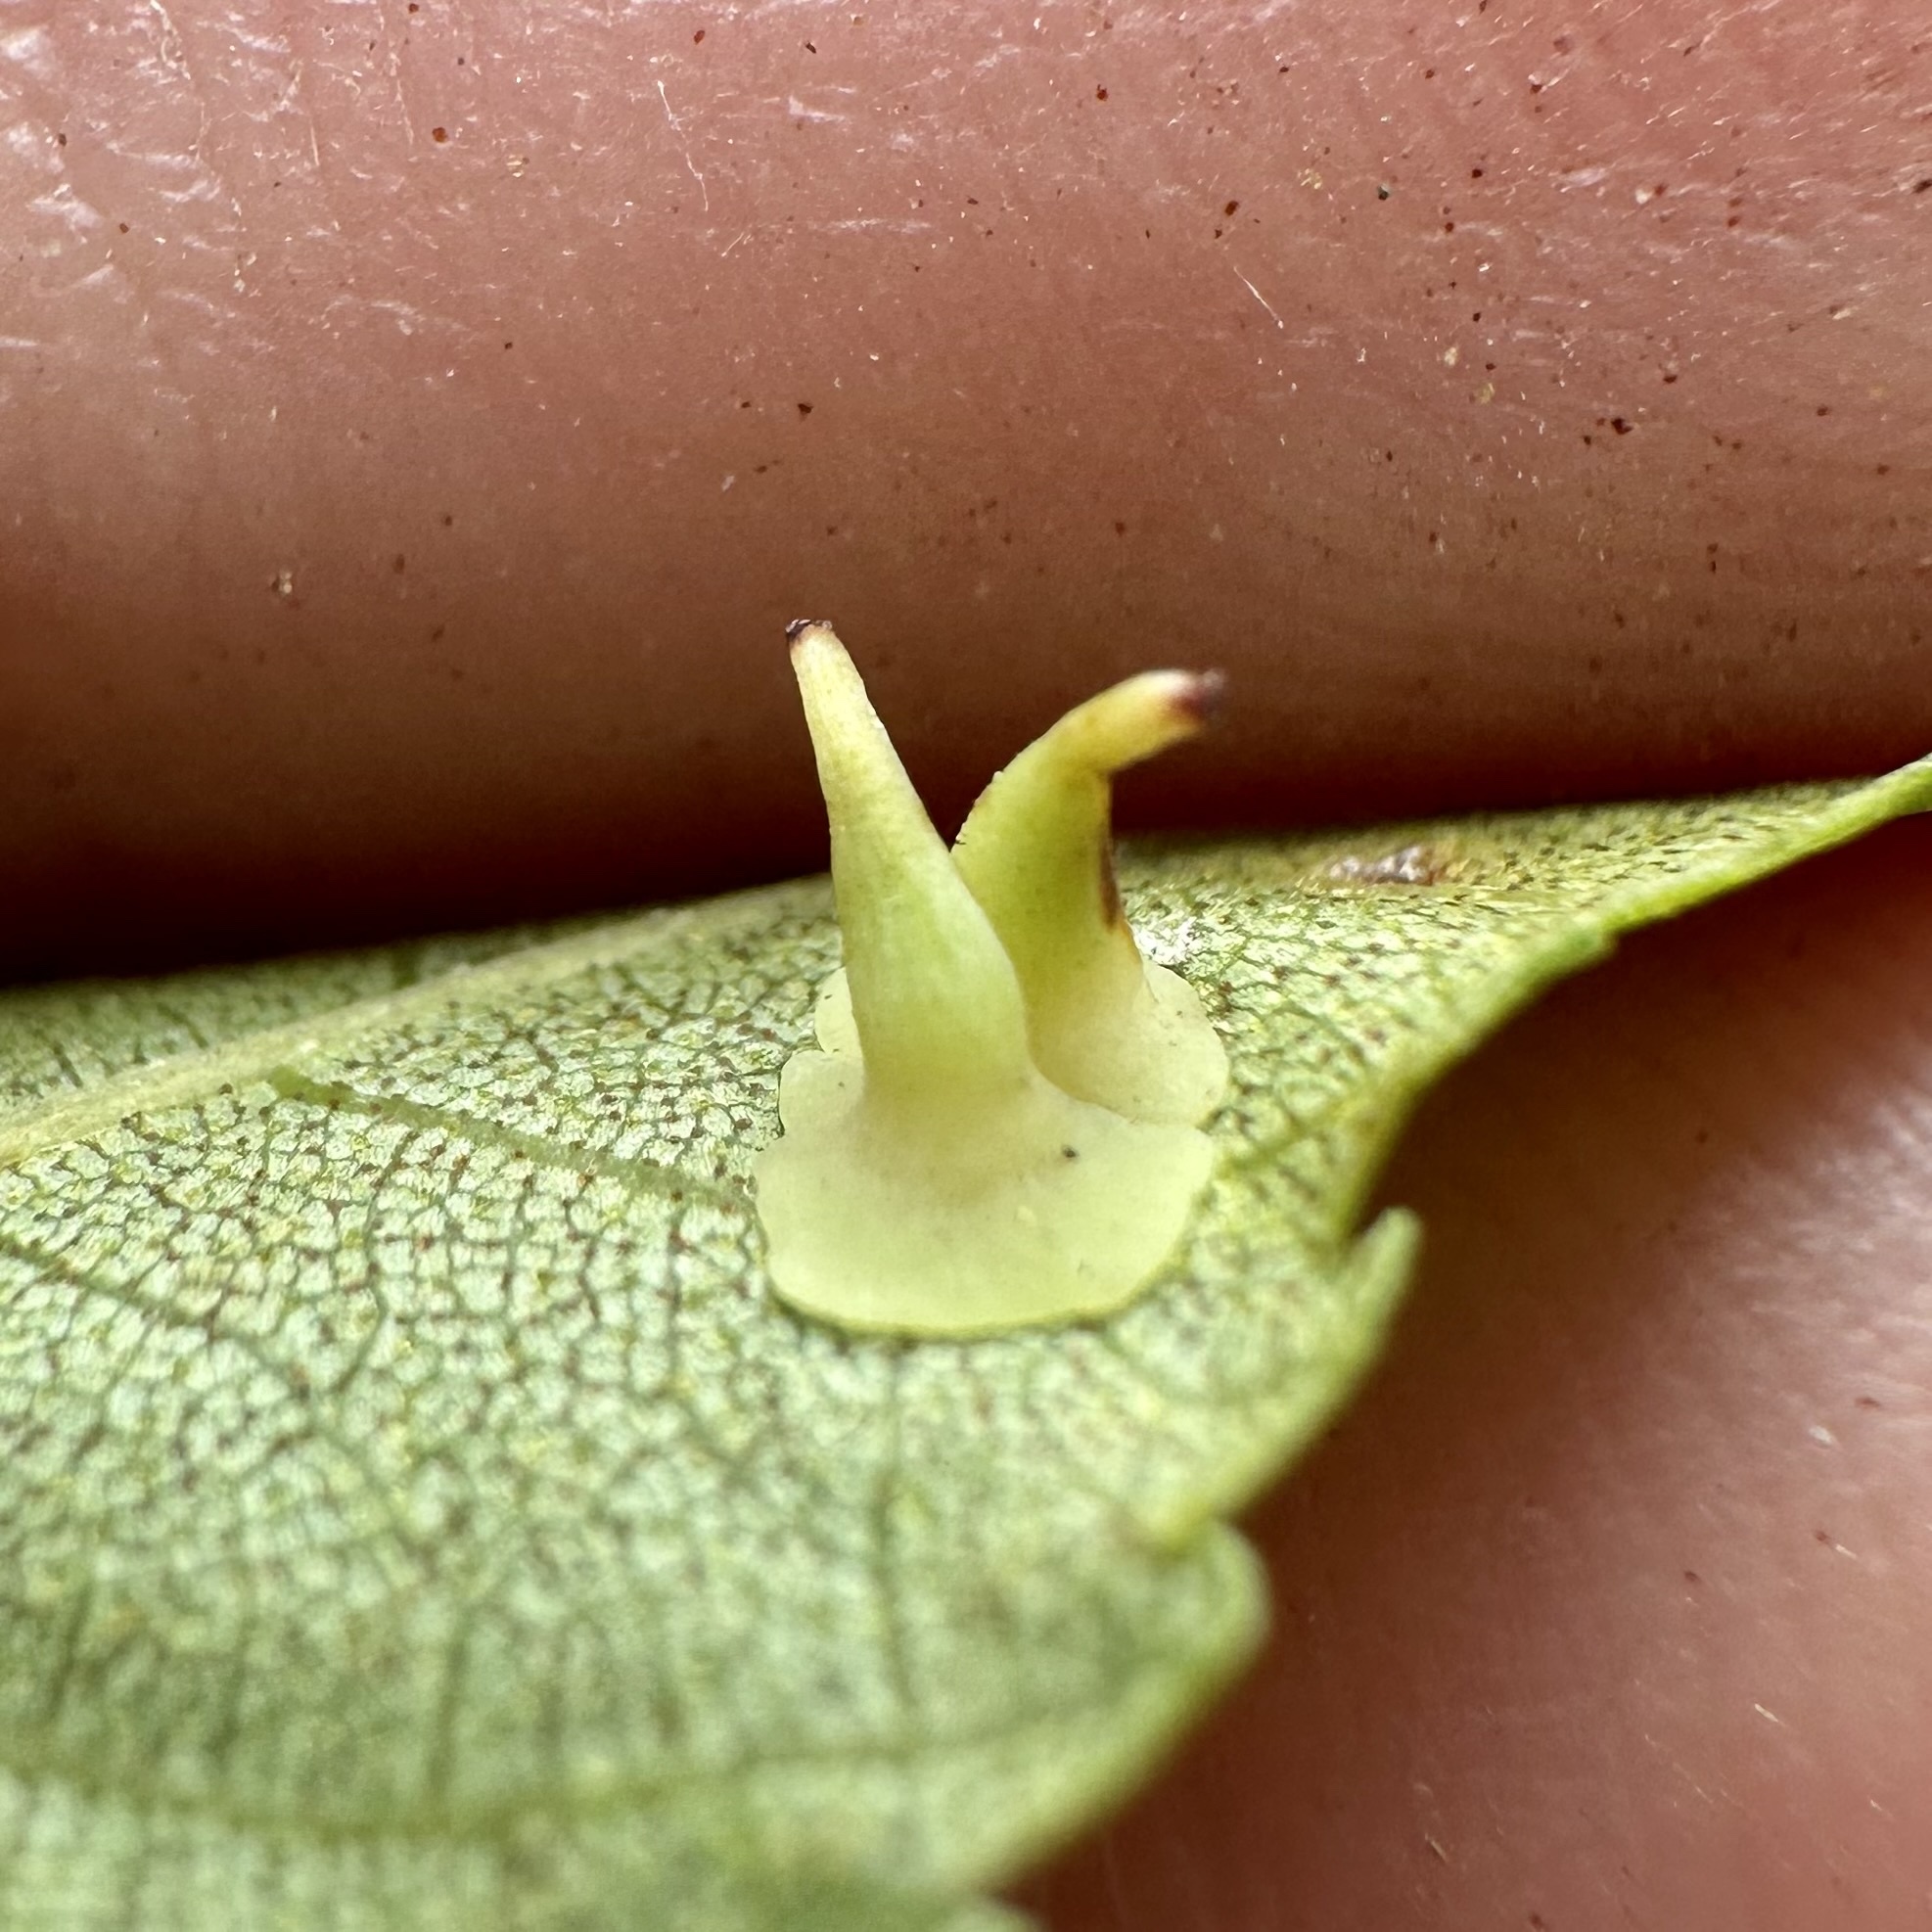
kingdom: Animalia
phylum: Arthropoda
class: Insecta
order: Diptera
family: Cecidomyiidae
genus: Caryomyia
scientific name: Caryomyia stellata
